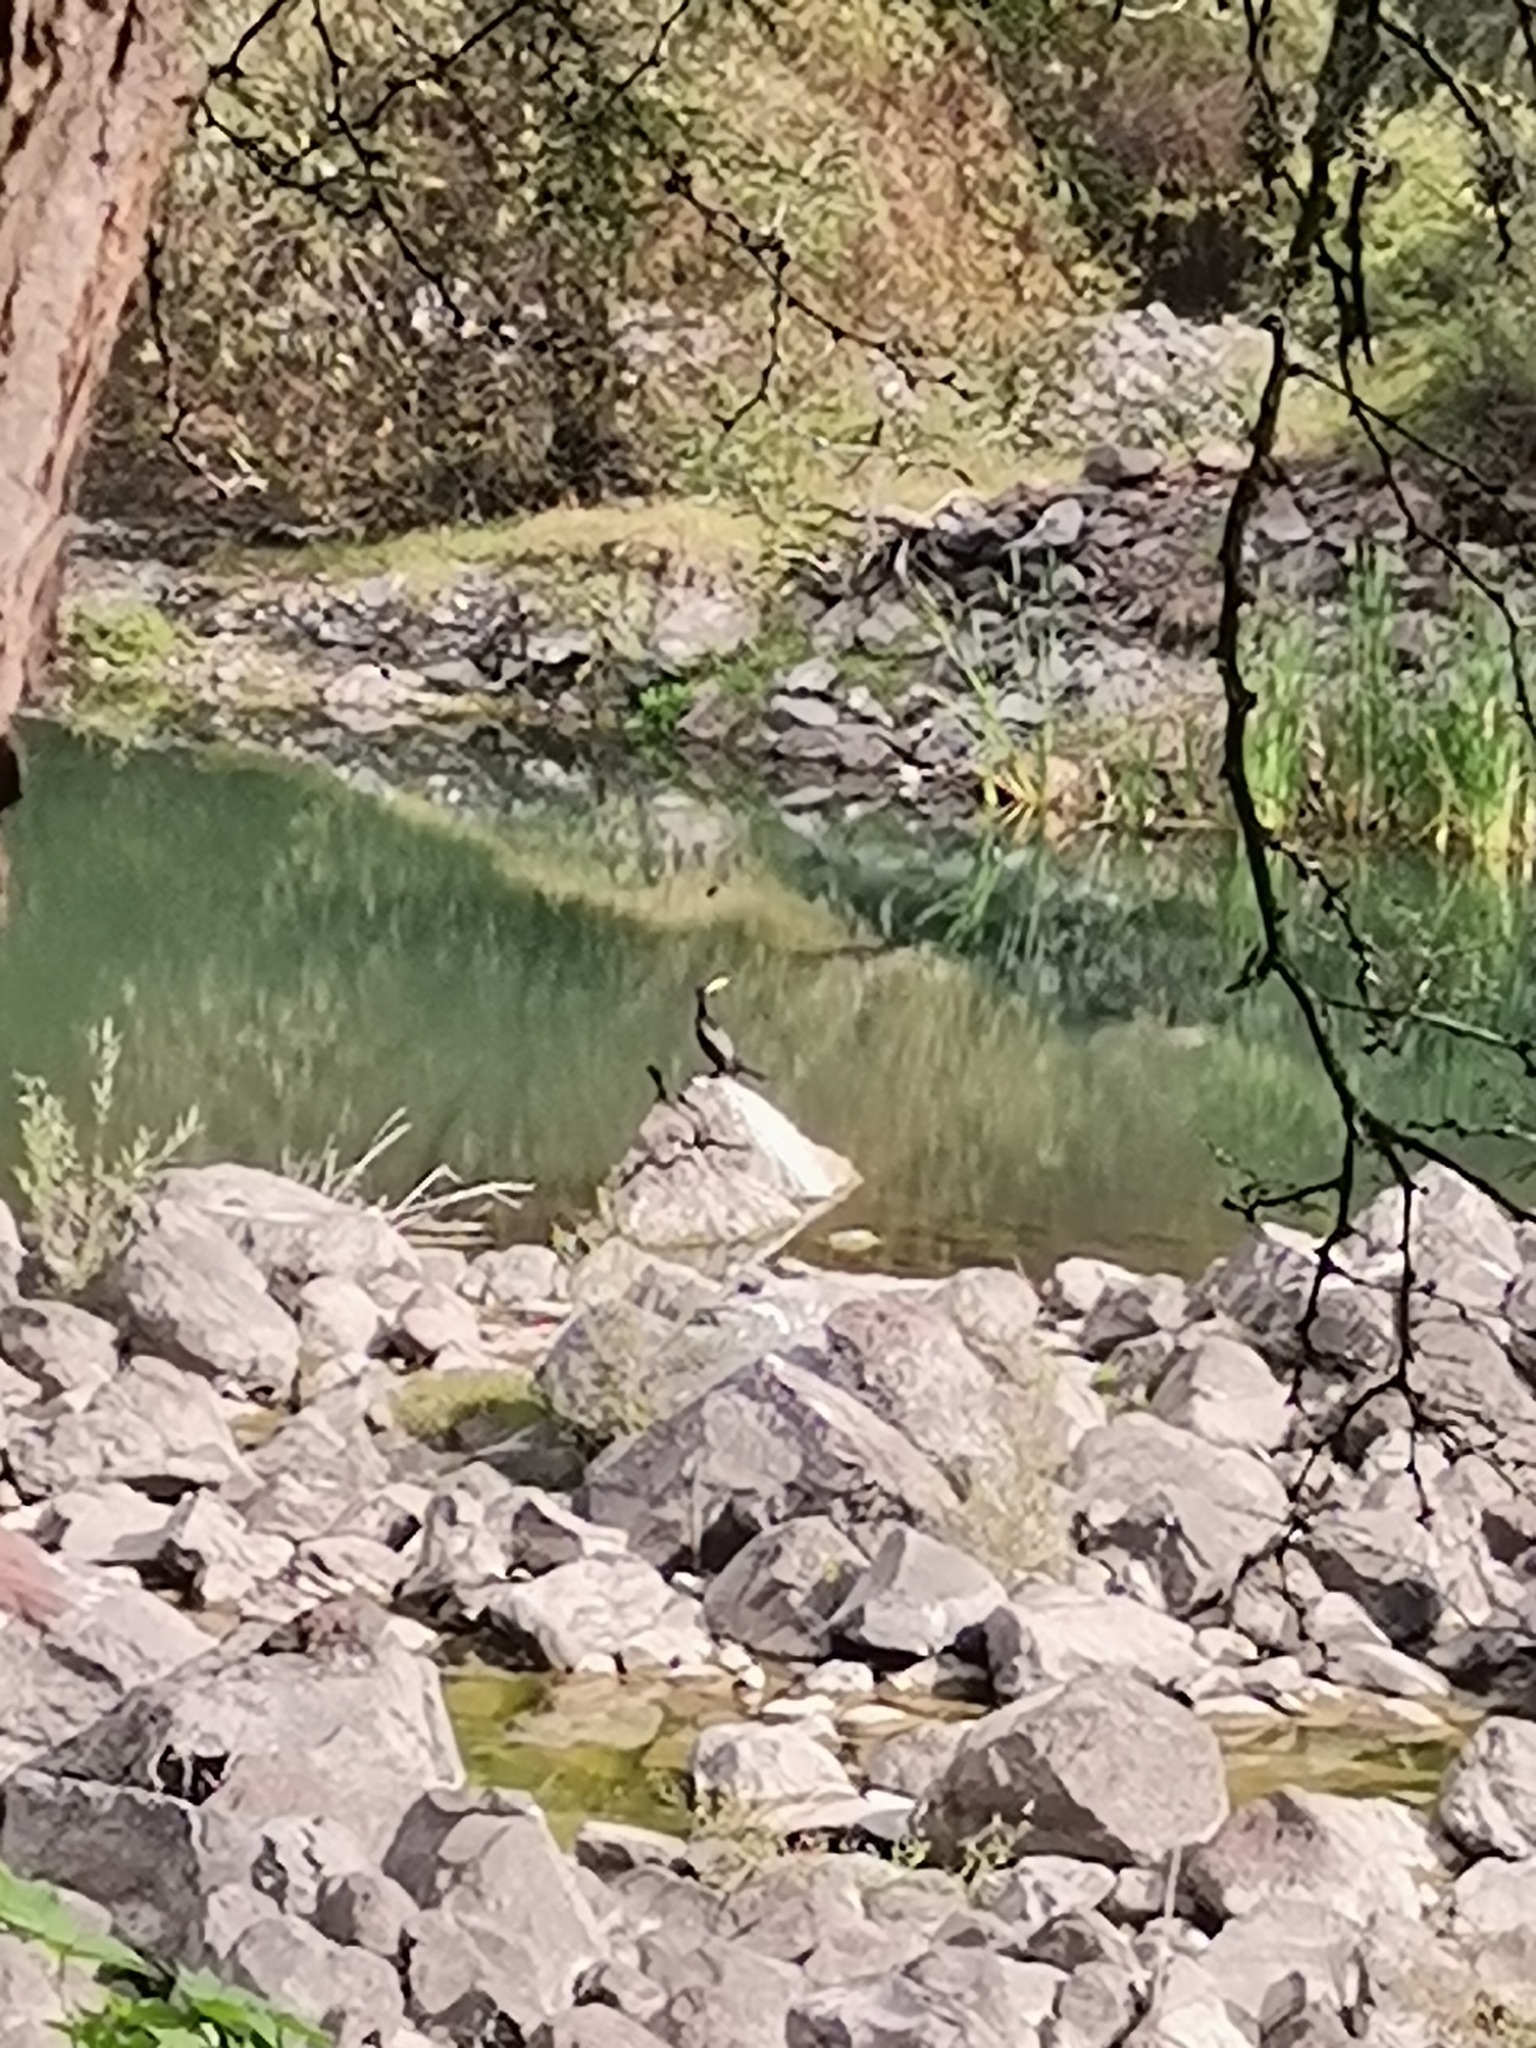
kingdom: Animalia
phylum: Chordata
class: Aves
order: Suliformes
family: Phalacrocoracidae
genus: Phalacrocorax
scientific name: Phalacrocorax brasilianus
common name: Neotropic cormorant
